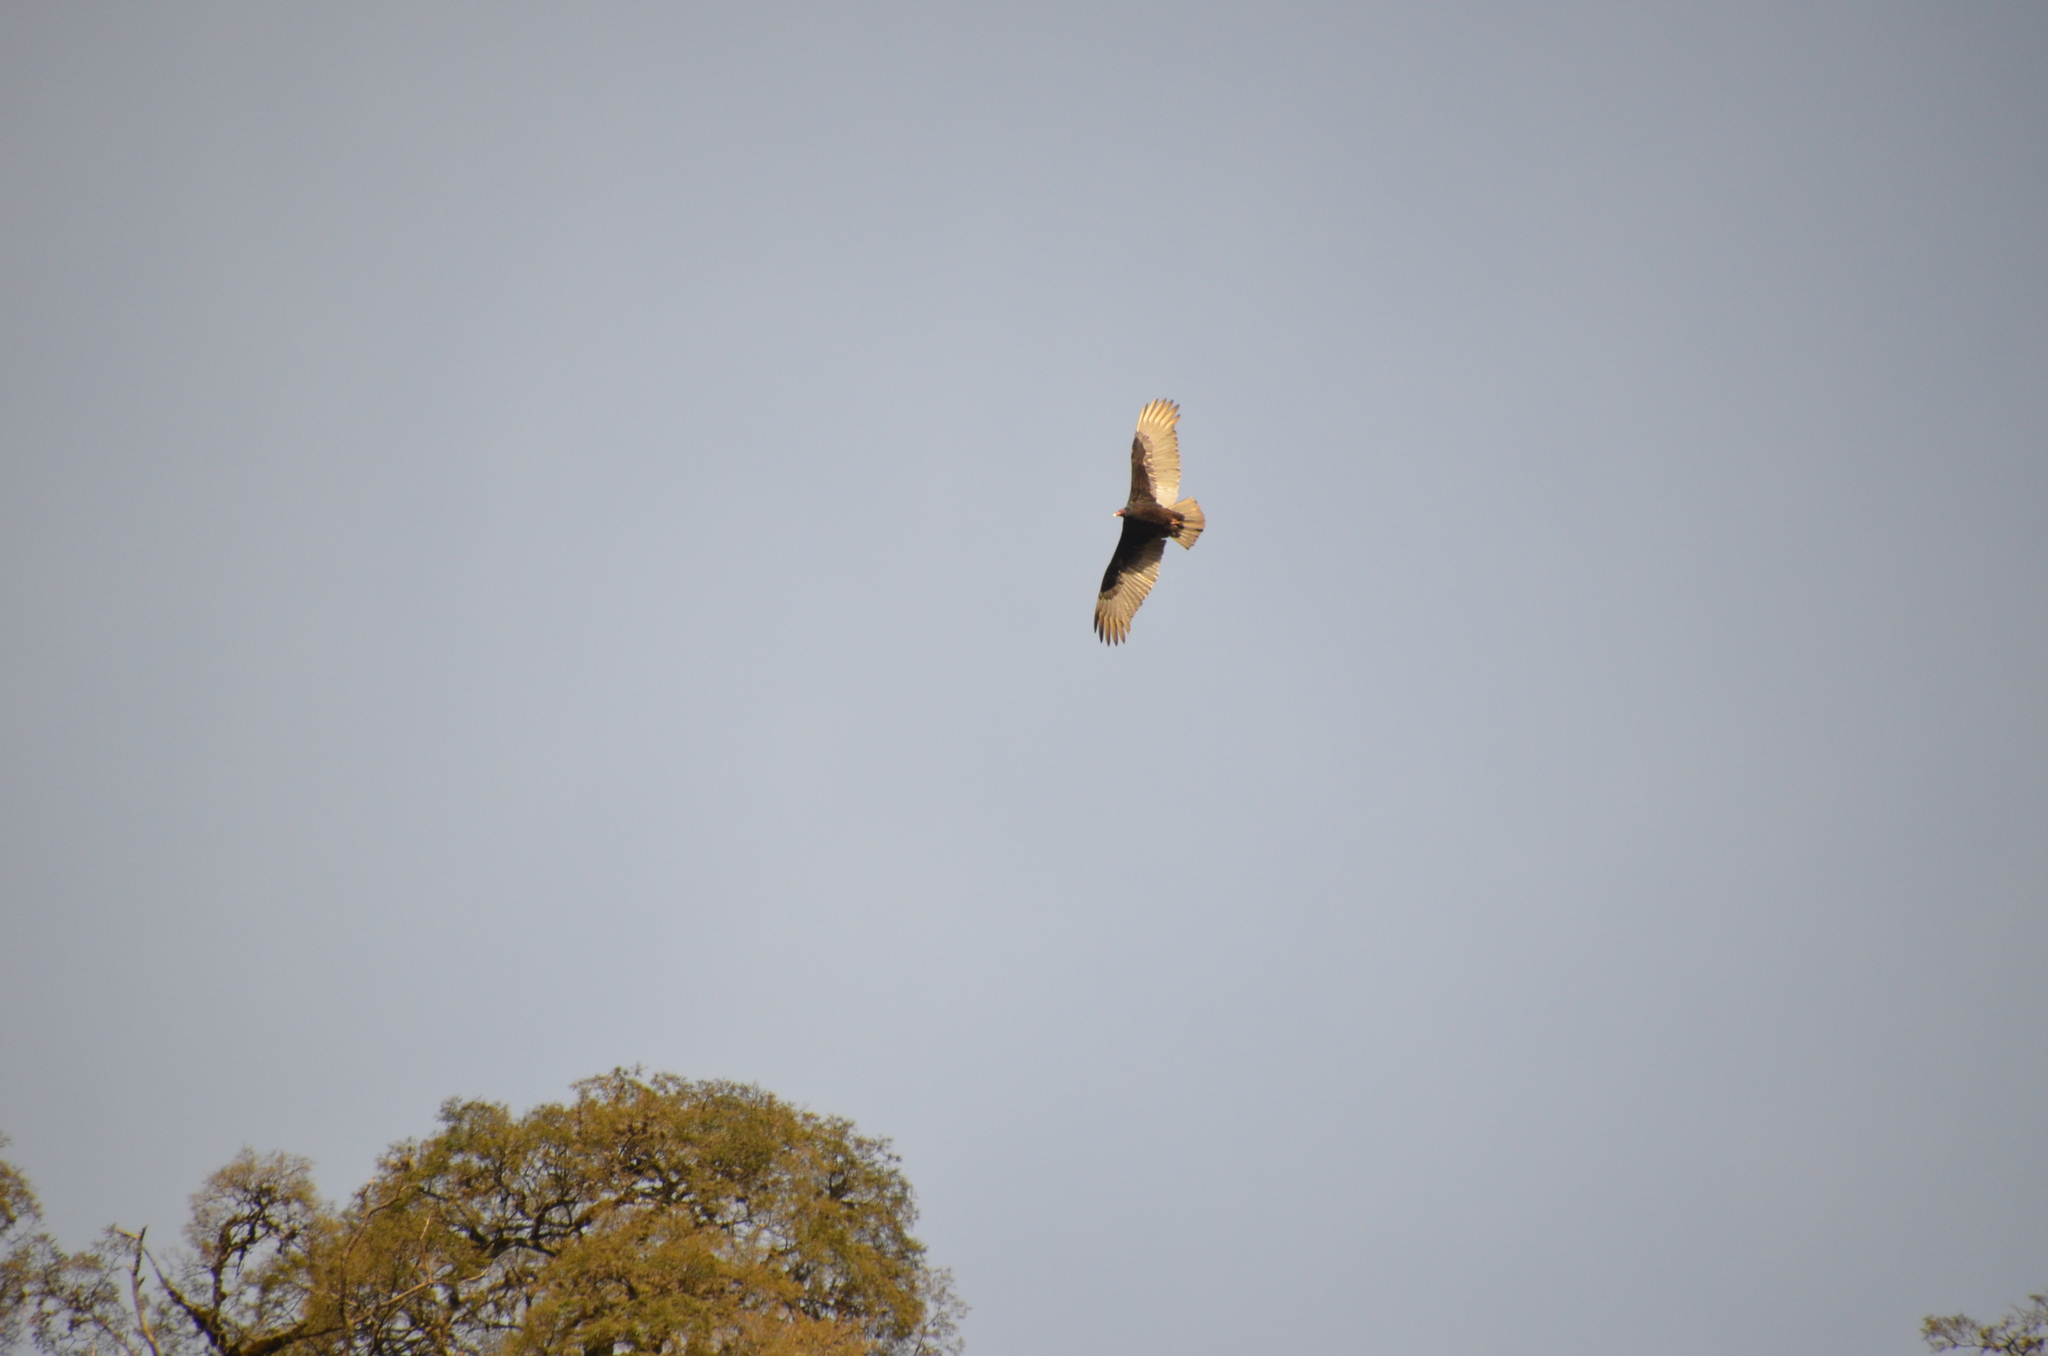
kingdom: Animalia
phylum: Chordata
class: Aves
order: Accipitriformes
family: Cathartidae
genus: Cathartes
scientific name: Cathartes aura
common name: Turkey vulture
